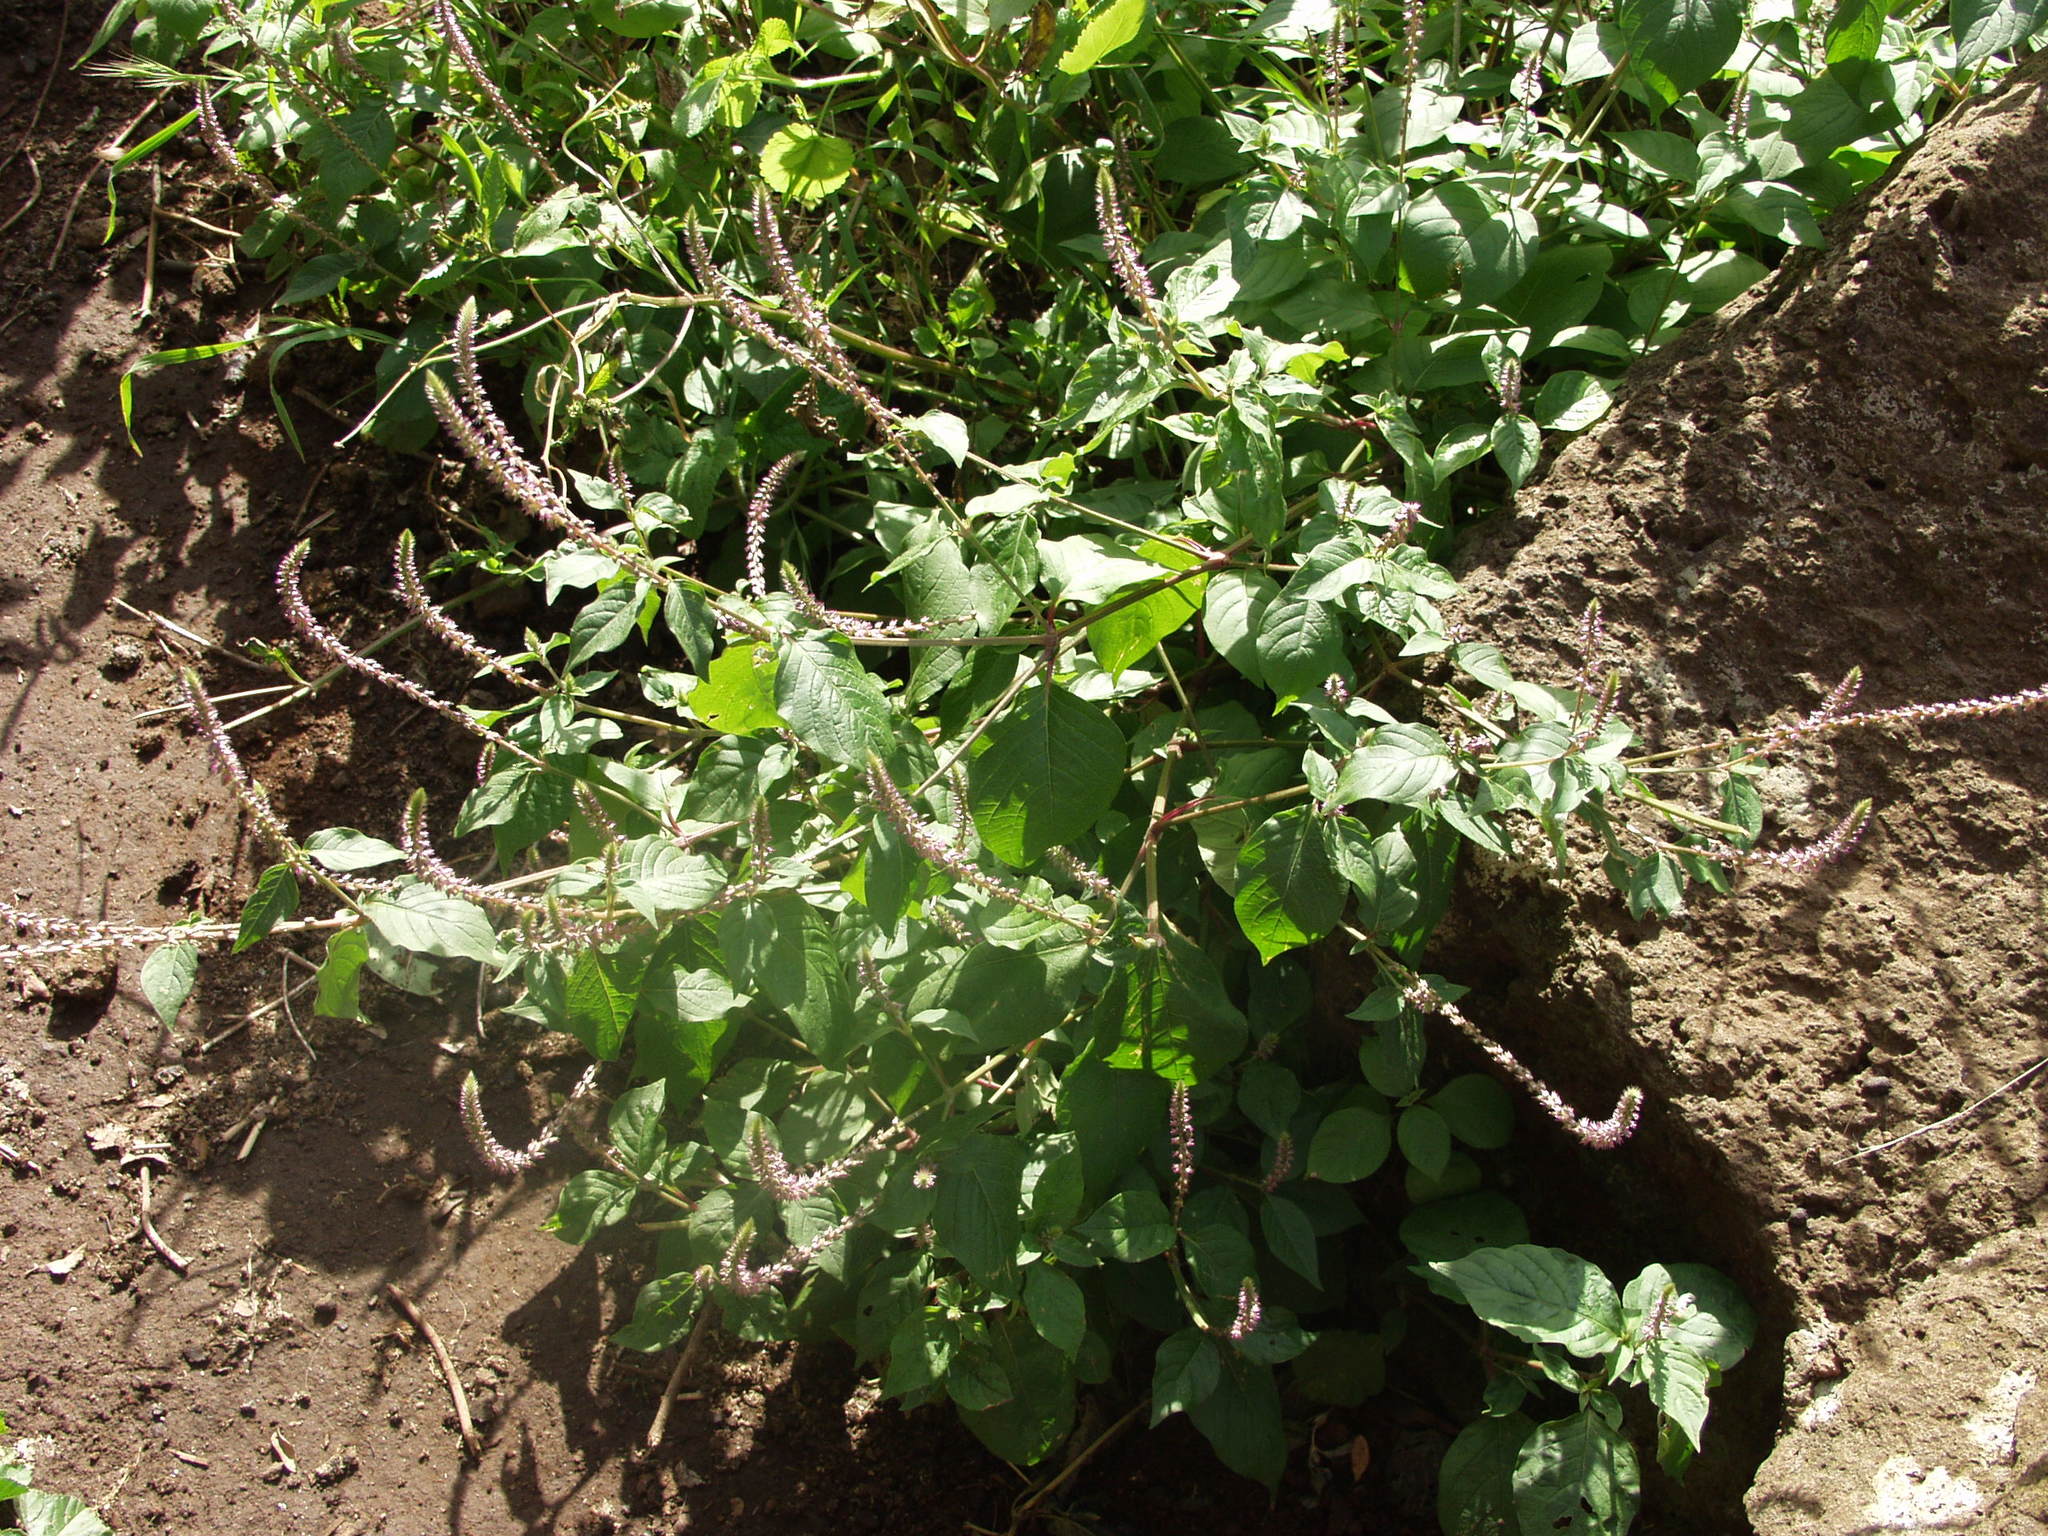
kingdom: Plantae
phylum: Tracheophyta
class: Magnoliopsida
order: Caryophyllales
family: Amaranthaceae
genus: Achyranthes
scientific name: Achyranthes aspera
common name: Devil's horsewhip
